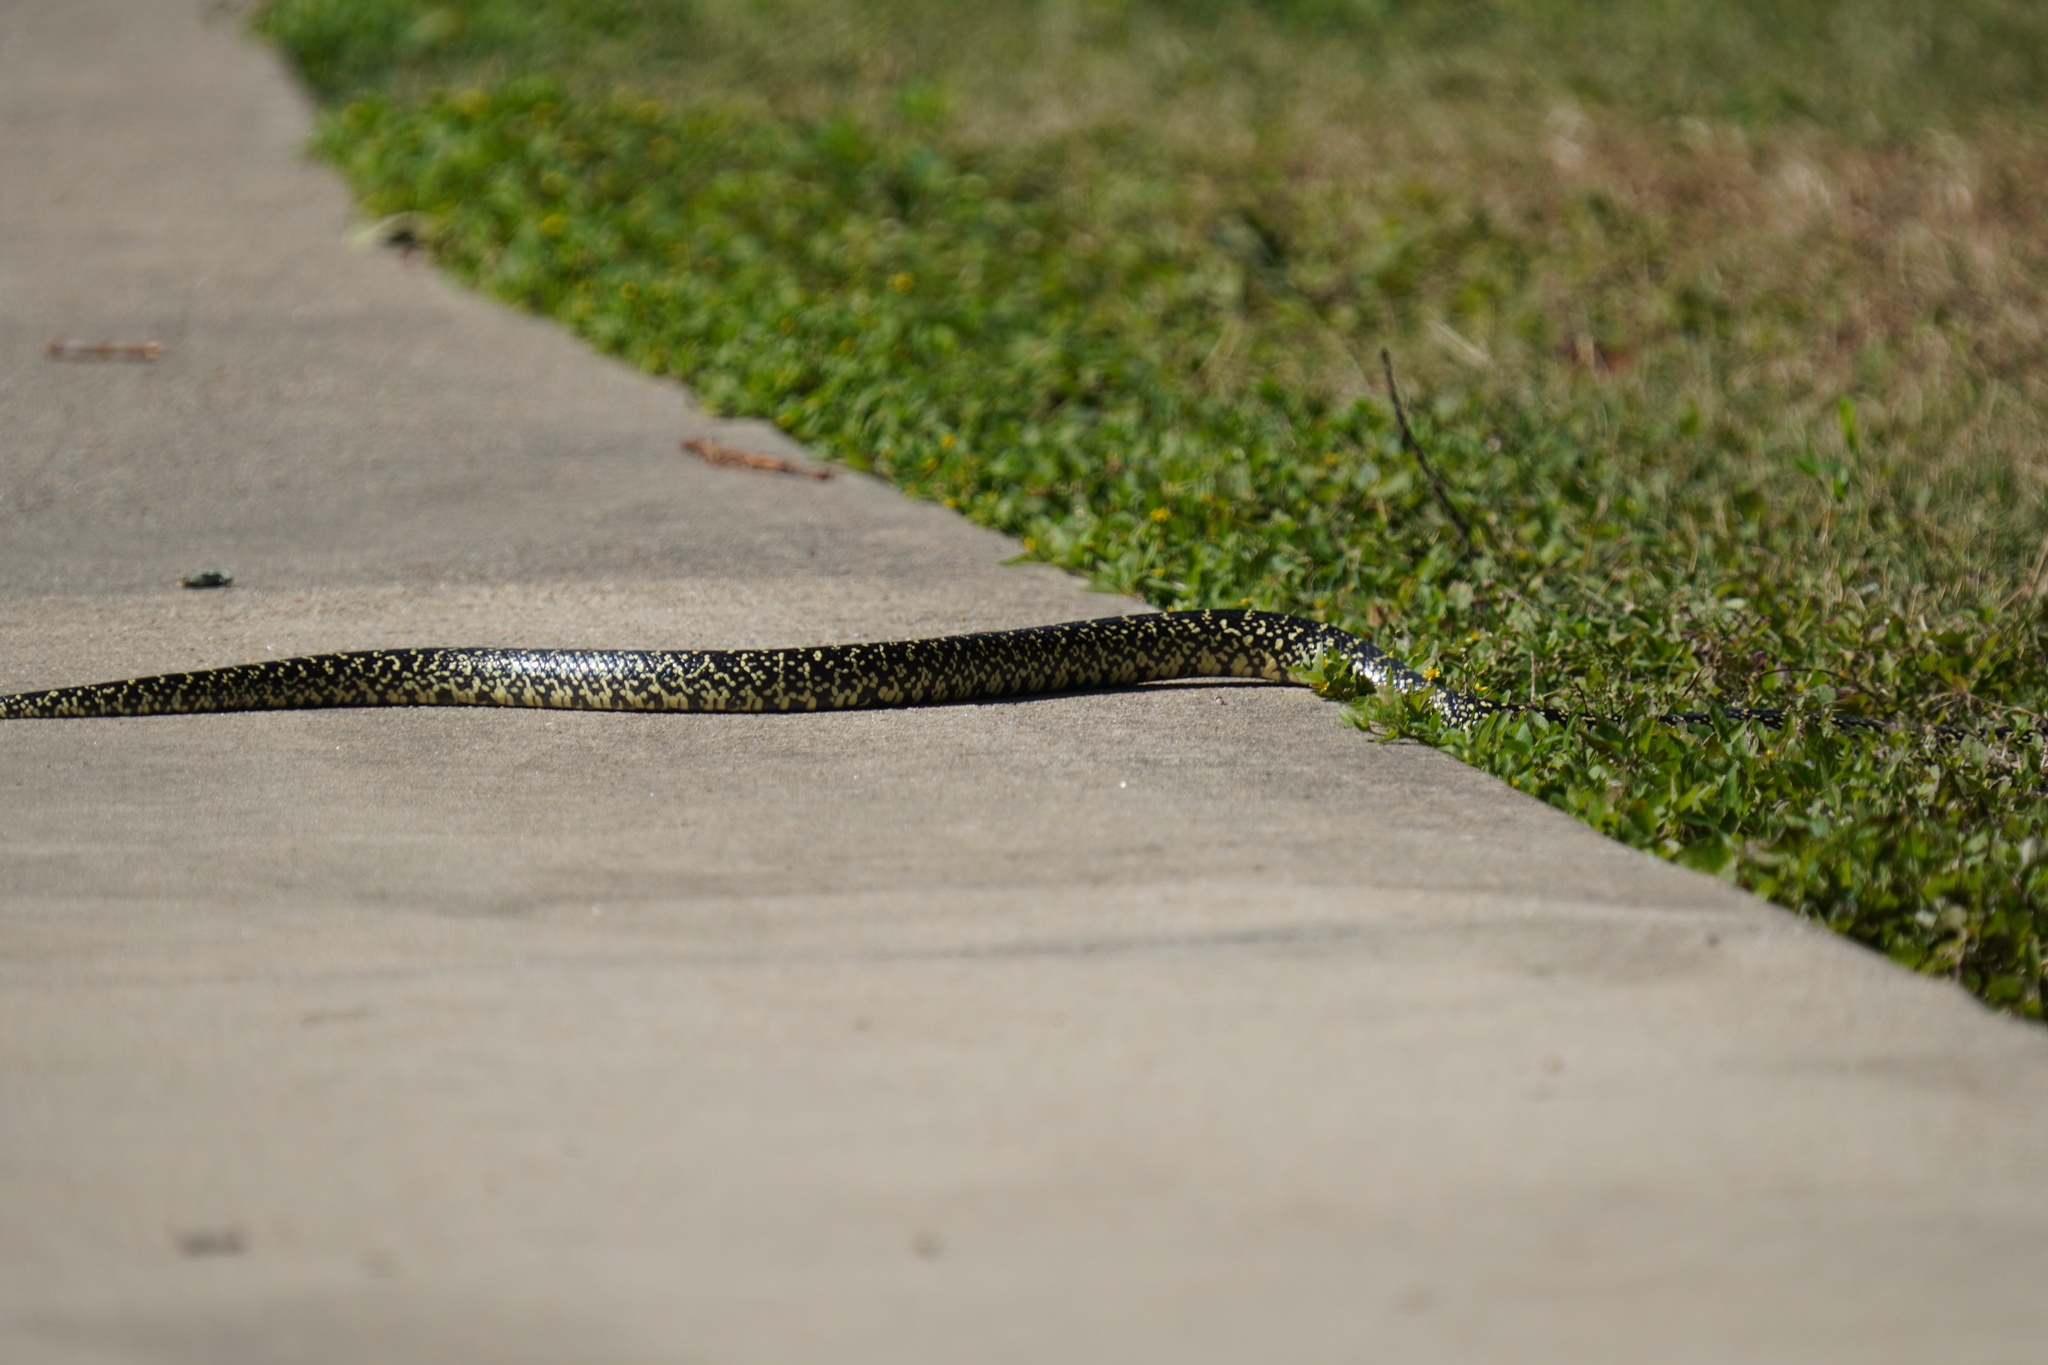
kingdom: Animalia
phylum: Chordata
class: Squamata
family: Colubridae
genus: Lampropeltis
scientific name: Lampropeltis holbrooki
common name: Speckled kingsnake
